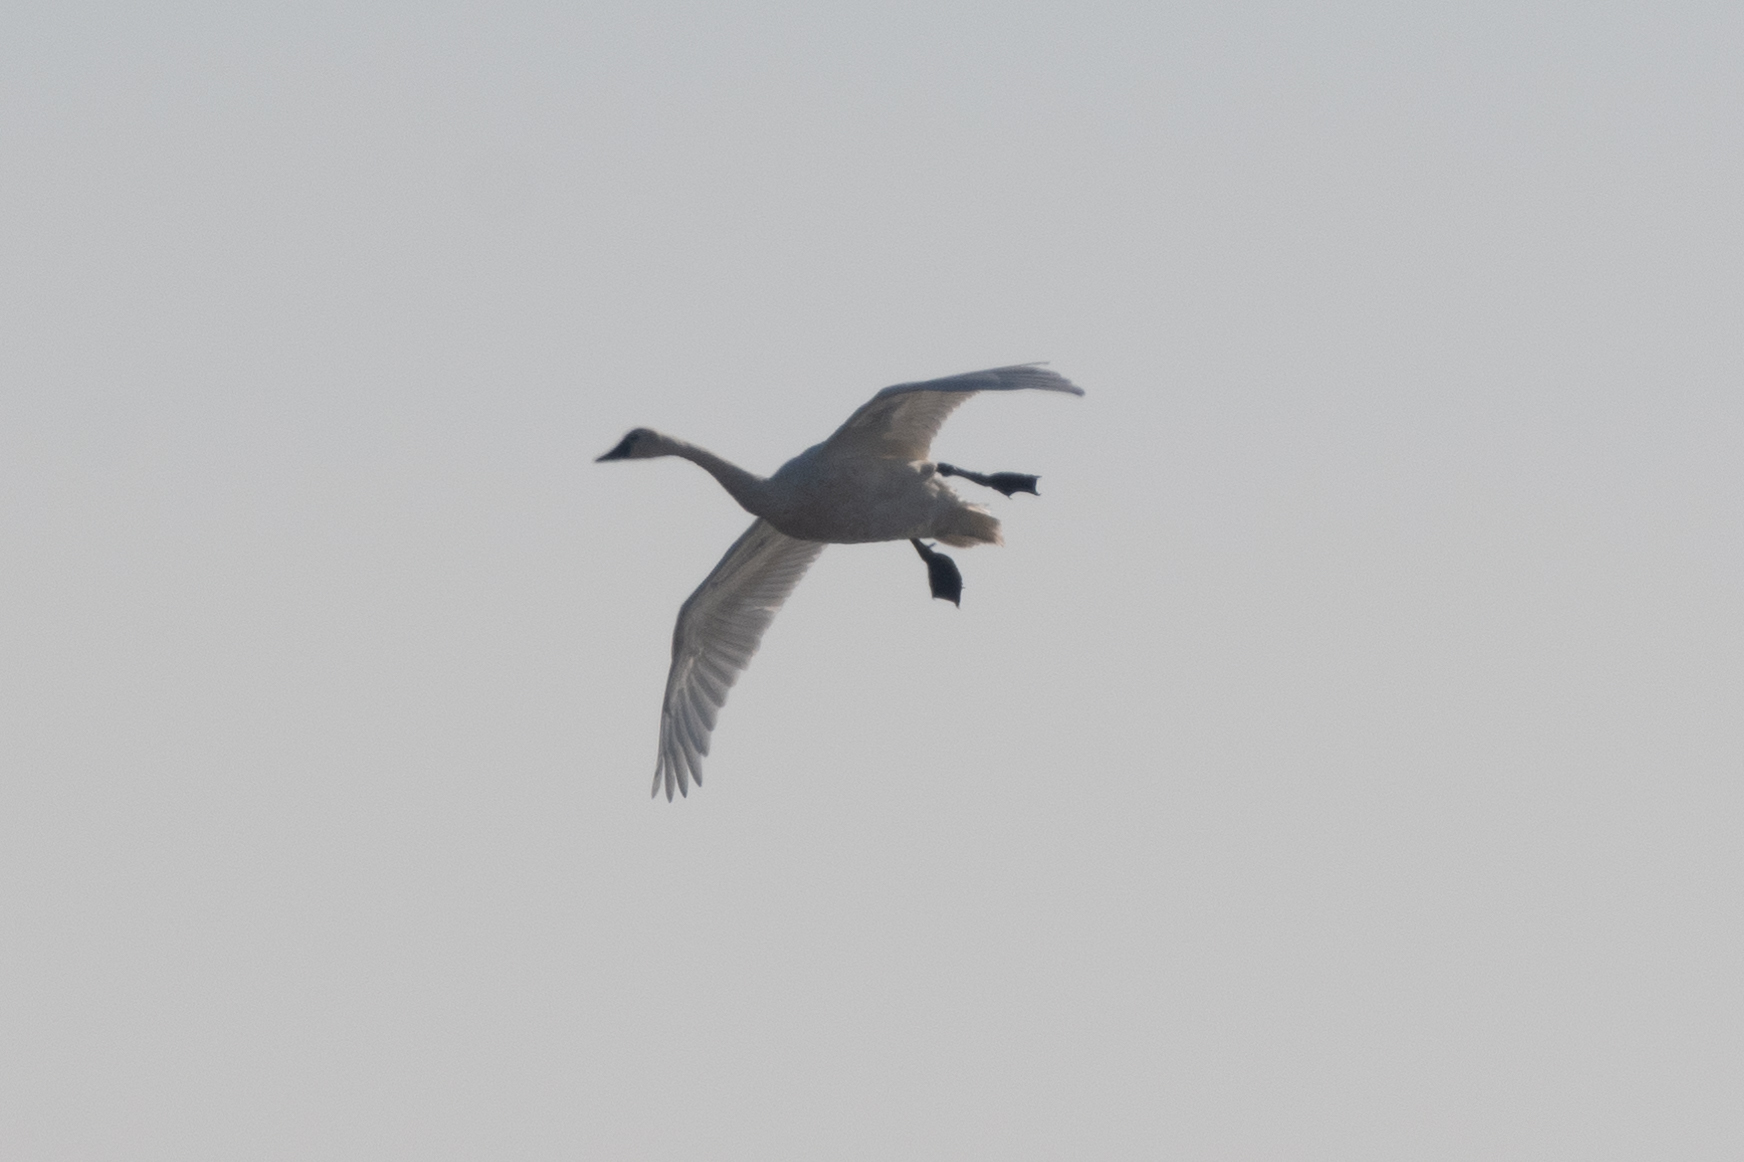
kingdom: Animalia
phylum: Chordata
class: Aves
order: Anseriformes
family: Anatidae
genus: Cygnus
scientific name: Cygnus columbianus
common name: Tundra swan
